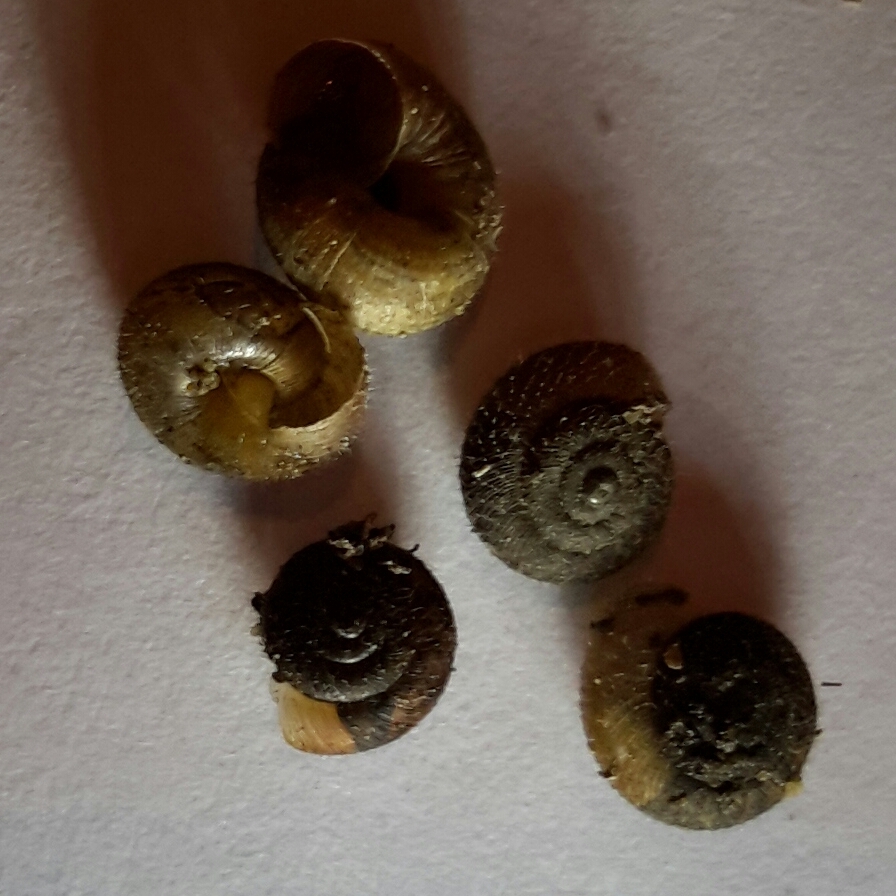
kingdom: Animalia
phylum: Mollusca
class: Gastropoda
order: Stylommatophora
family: Geomitridae
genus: Xerotricha
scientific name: Xerotricha conspurcata
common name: Snail
